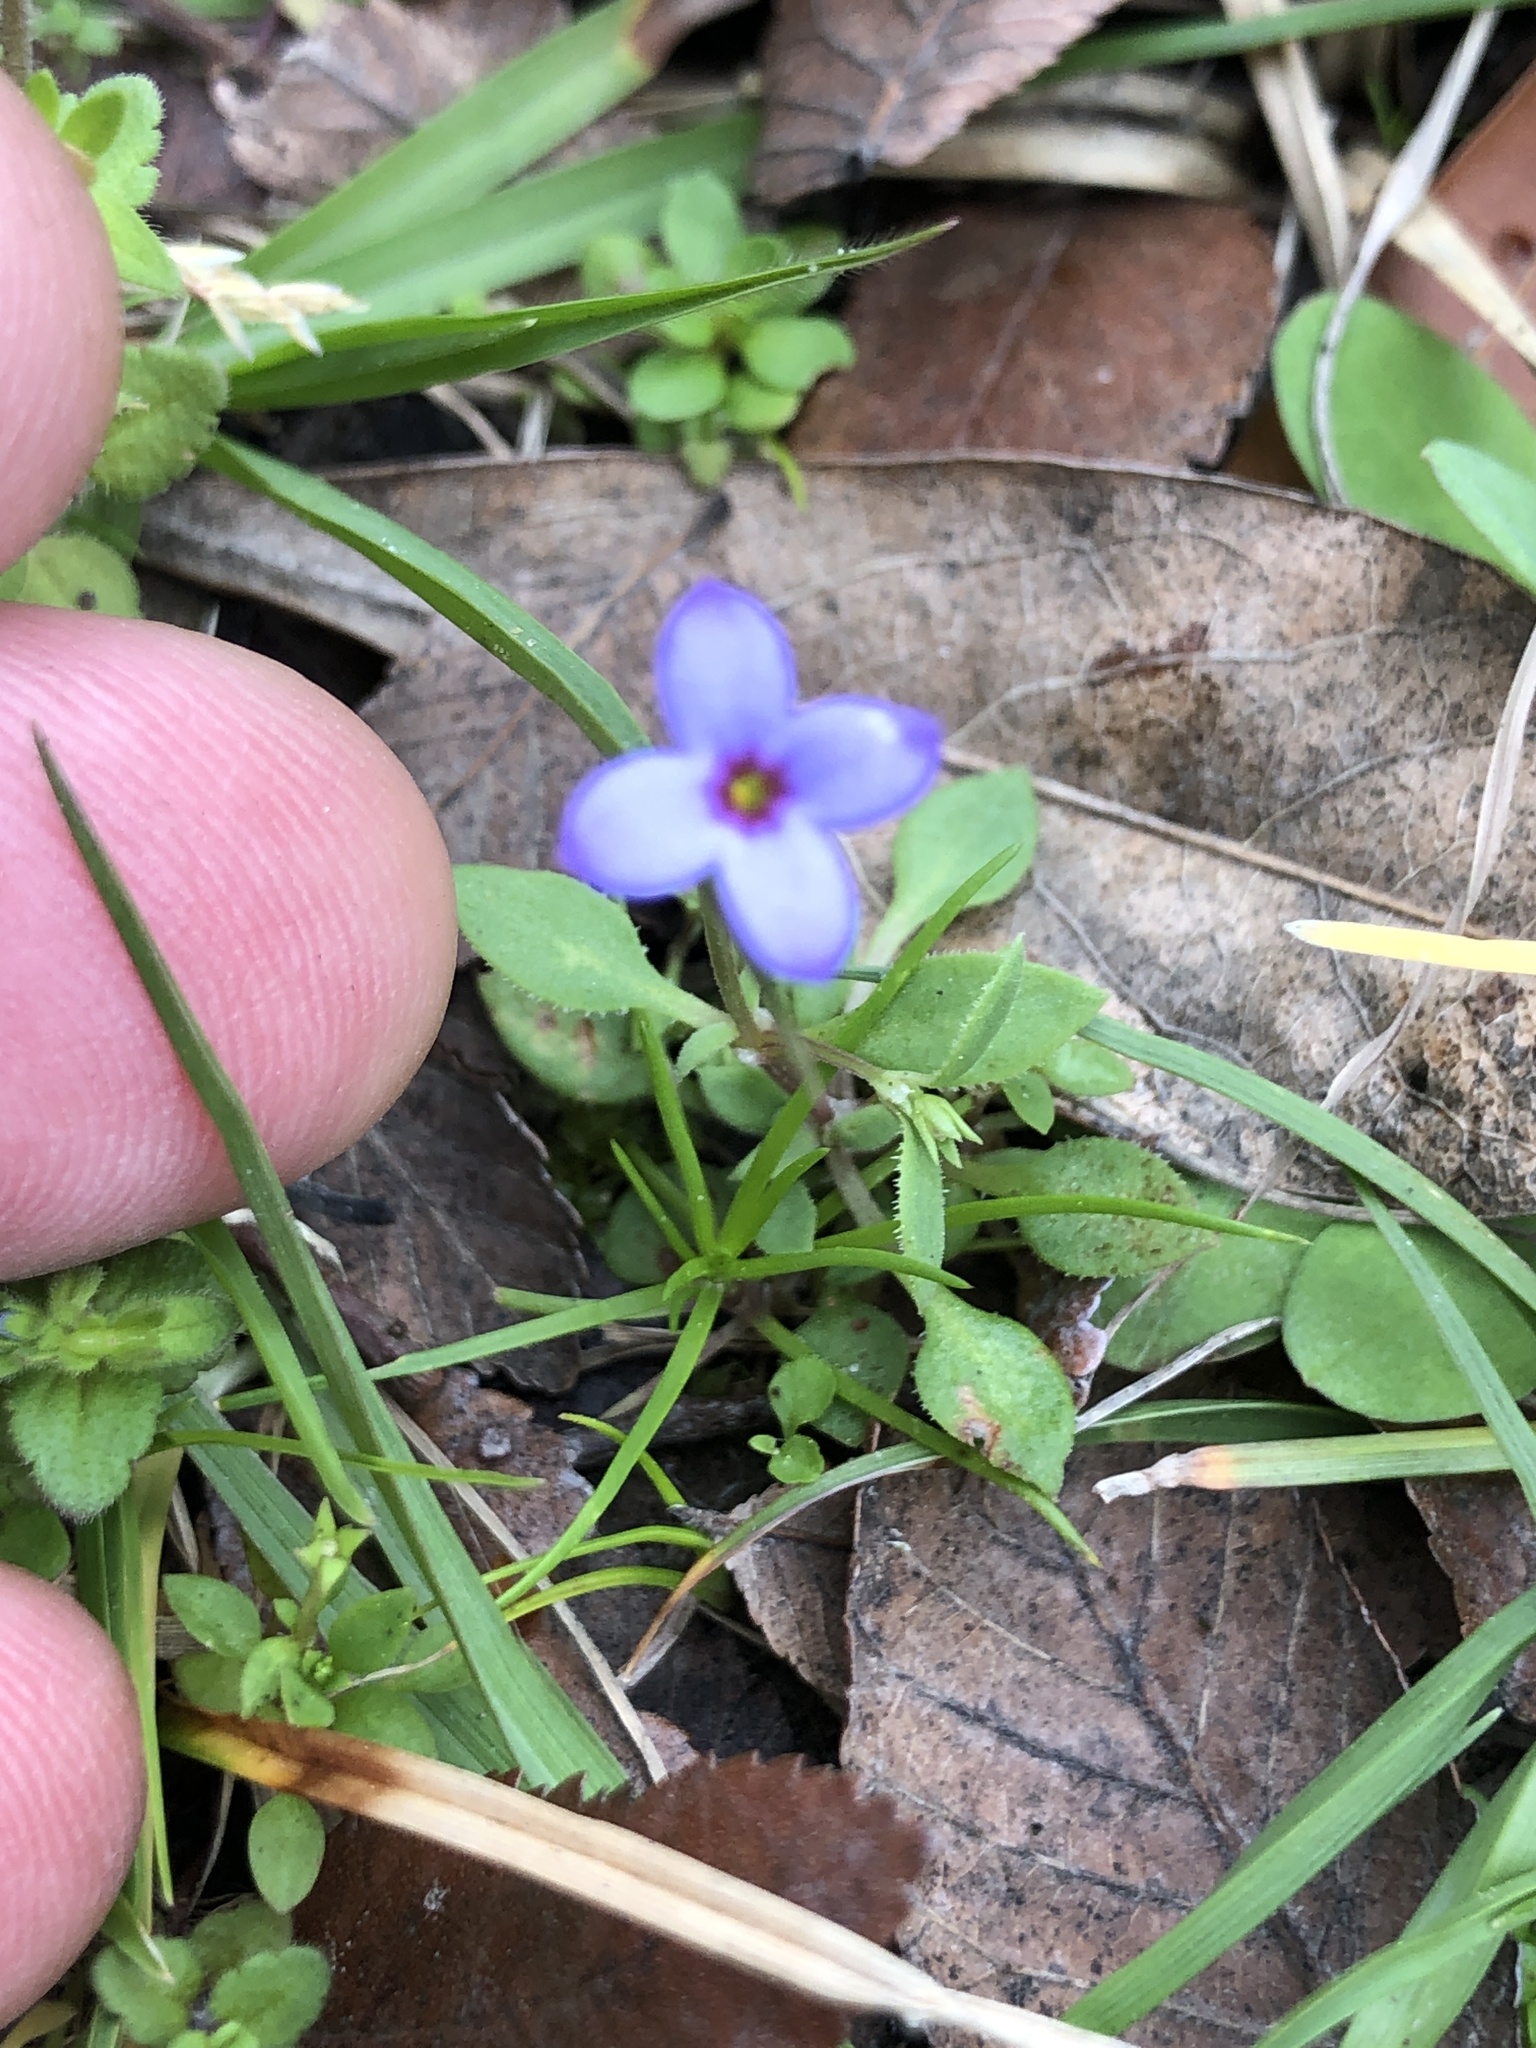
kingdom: Plantae
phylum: Tracheophyta
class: Magnoliopsida
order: Gentianales
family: Rubiaceae
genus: Houstonia
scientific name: Houstonia pusilla
